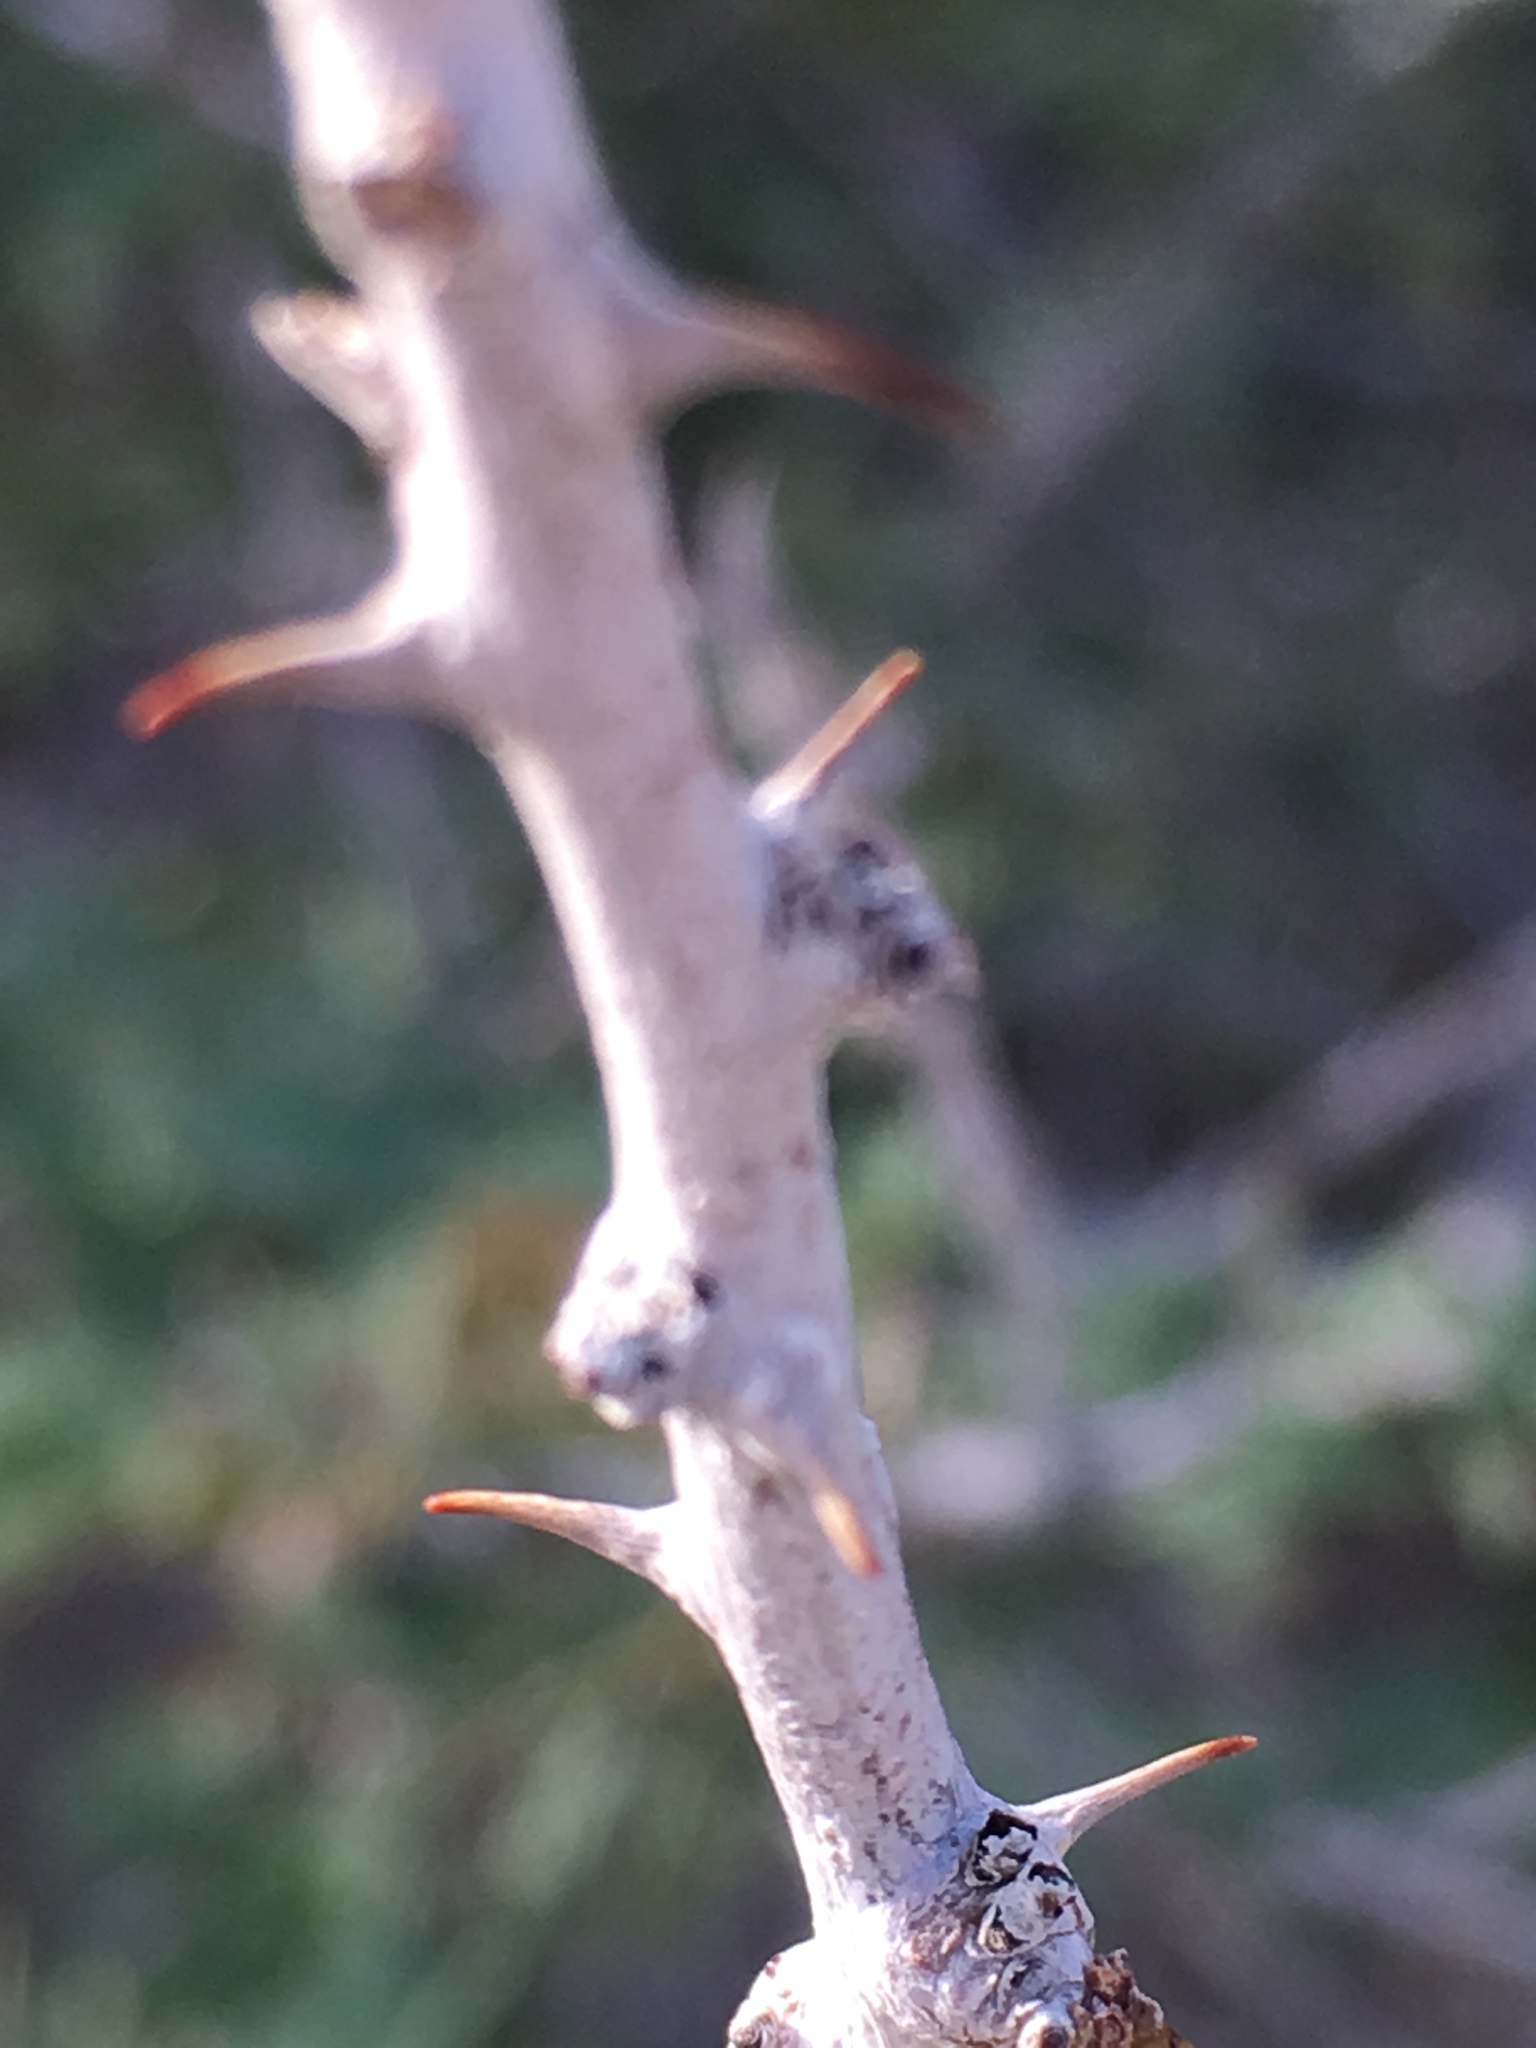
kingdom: Plantae
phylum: Tracheophyta
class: Magnoliopsida
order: Fabales
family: Fabaceae
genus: Senegalia
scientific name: Senegalia greggii
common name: Texas-mimosa
